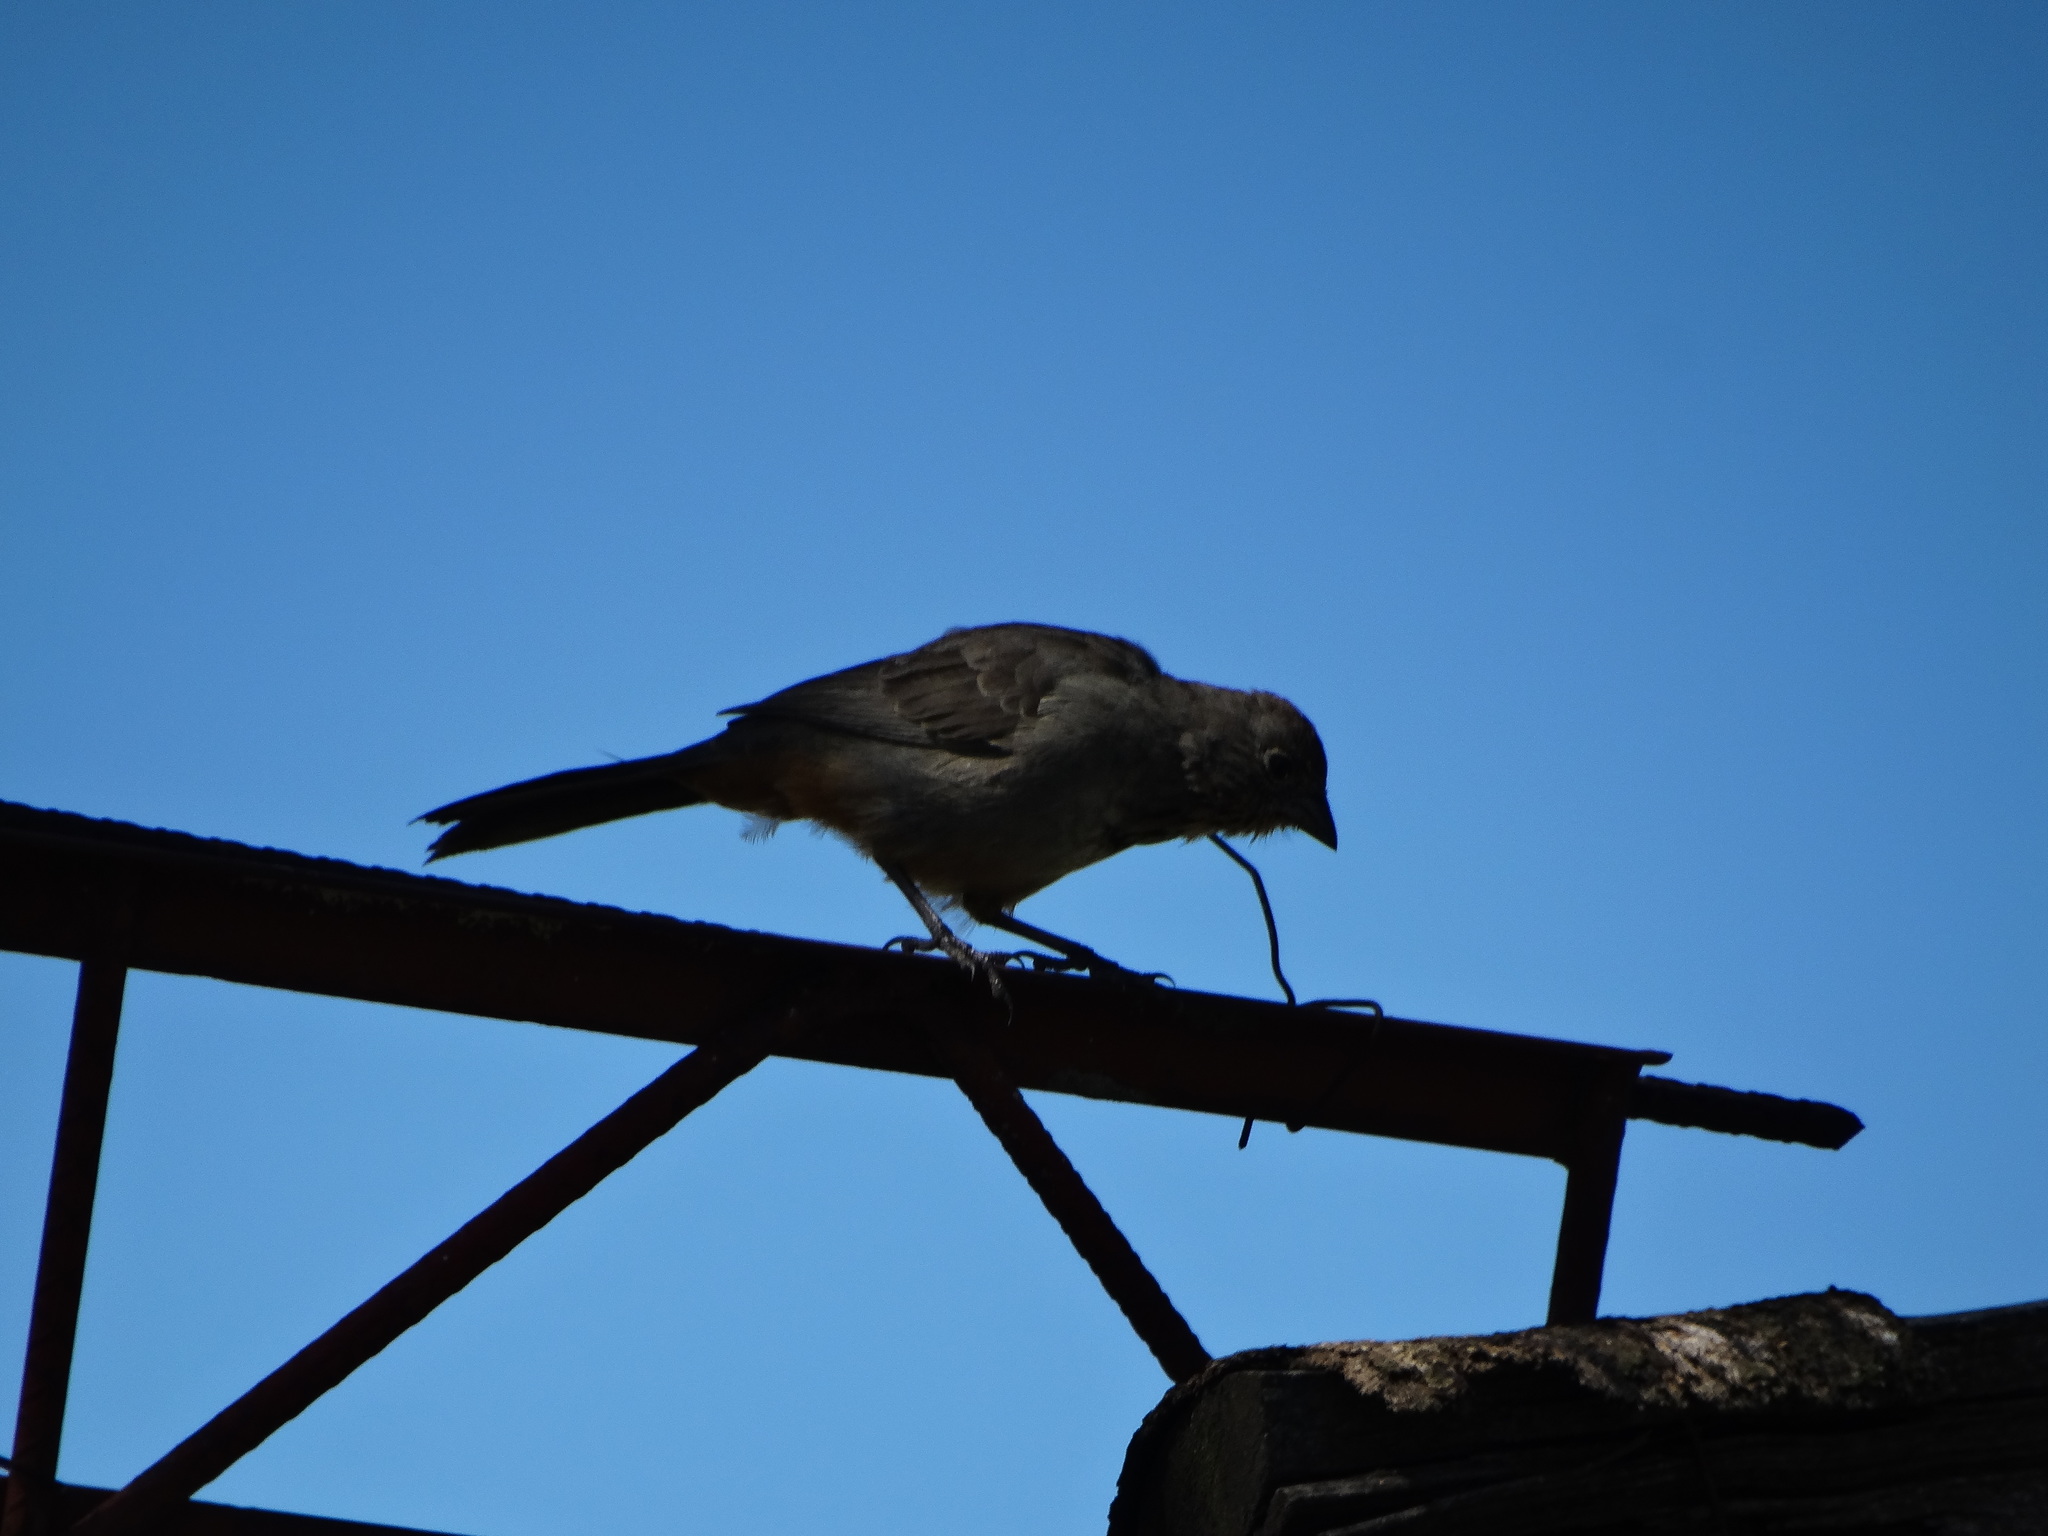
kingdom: Animalia
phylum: Chordata
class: Aves
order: Passeriformes
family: Passerellidae
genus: Melozone
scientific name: Melozone fusca
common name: Canyon towhee
